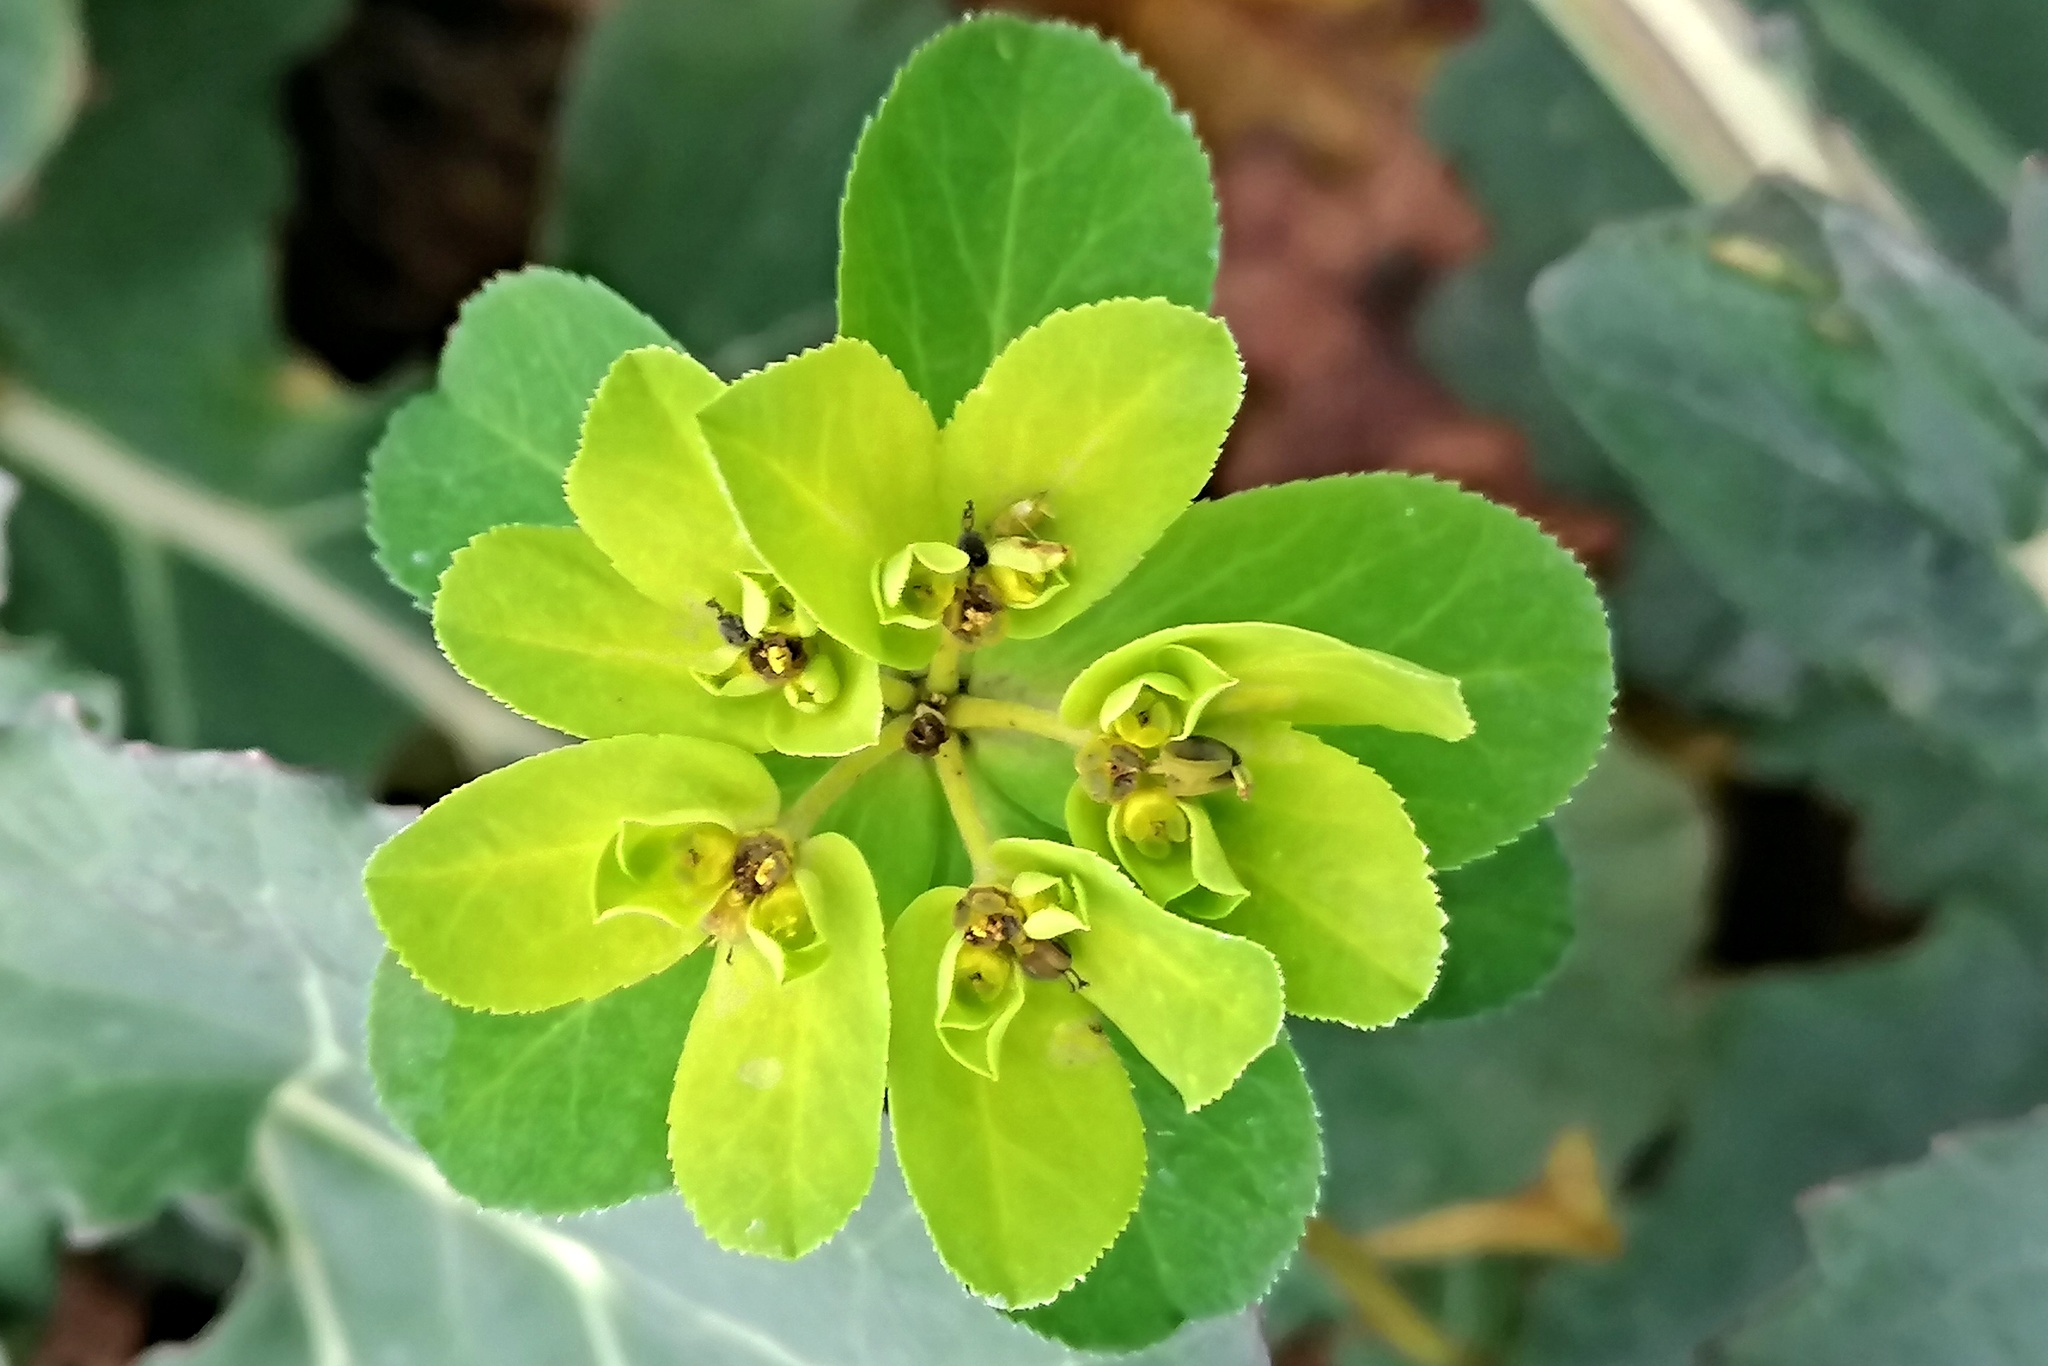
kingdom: Plantae
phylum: Tracheophyta
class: Magnoliopsida
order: Malpighiales
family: Euphorbiaceae
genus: Euphorbia
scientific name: Euphorbia helioscopia
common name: Sun spurge
